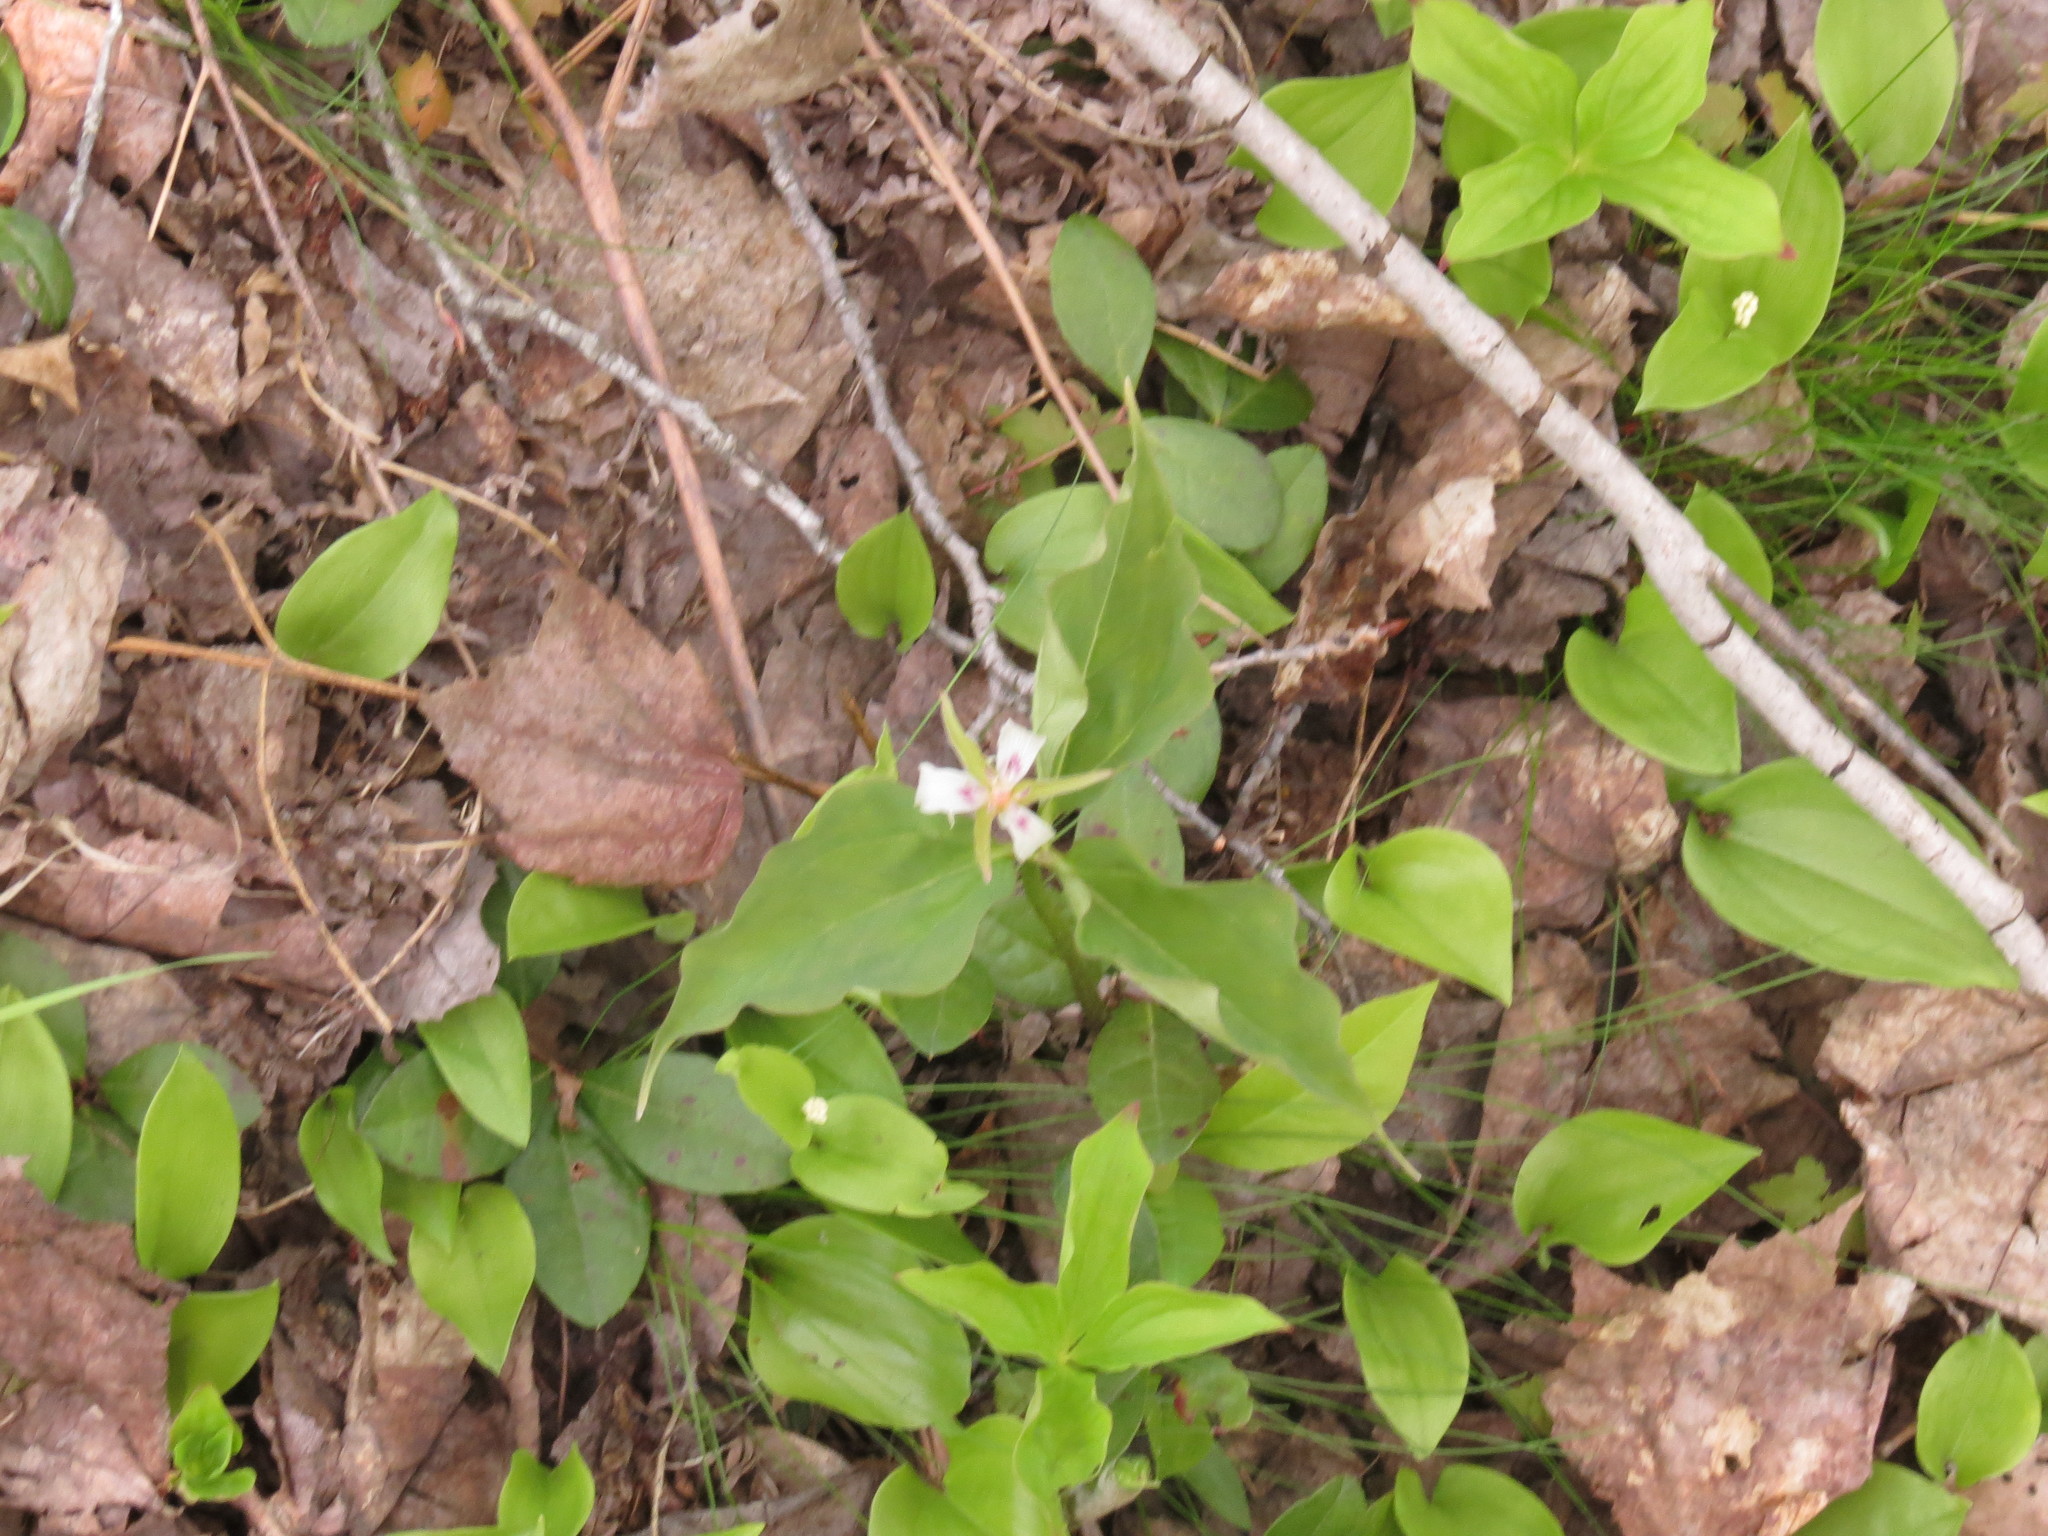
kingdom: Plantae
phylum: Tracheophyta
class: Liliopsida
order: Liliales
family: Melanthiaceae
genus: Trillium
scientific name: Trillium undulatum
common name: Paint trillium
